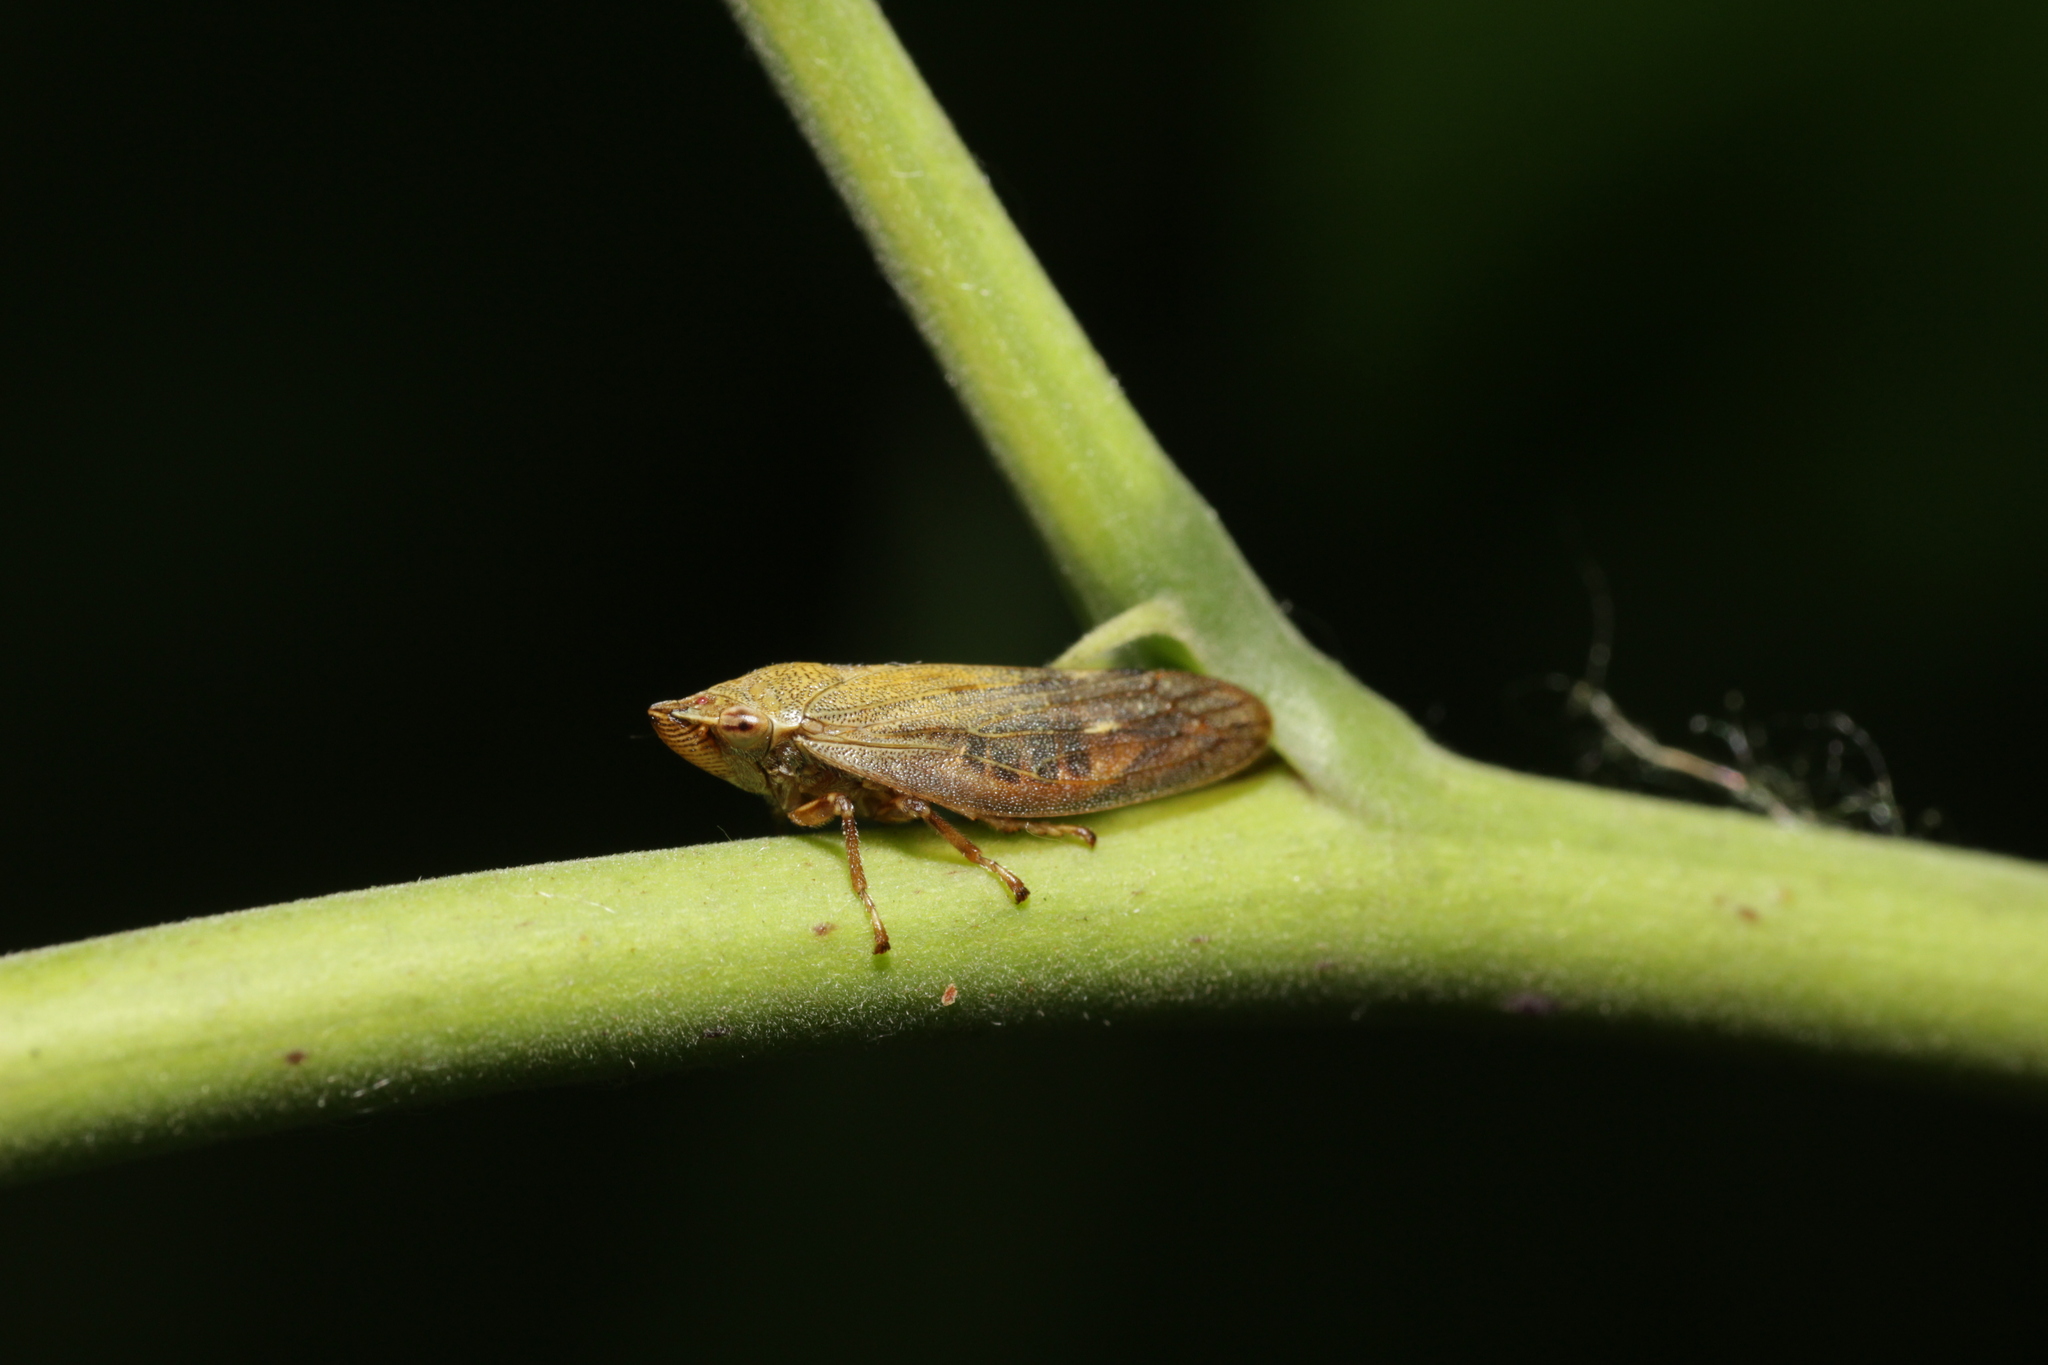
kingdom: Animalia
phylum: Arthropoda
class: Insecta
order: Hemiptera
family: Aphrophoridae
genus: Aphrophora
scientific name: Aphrophora salicina
